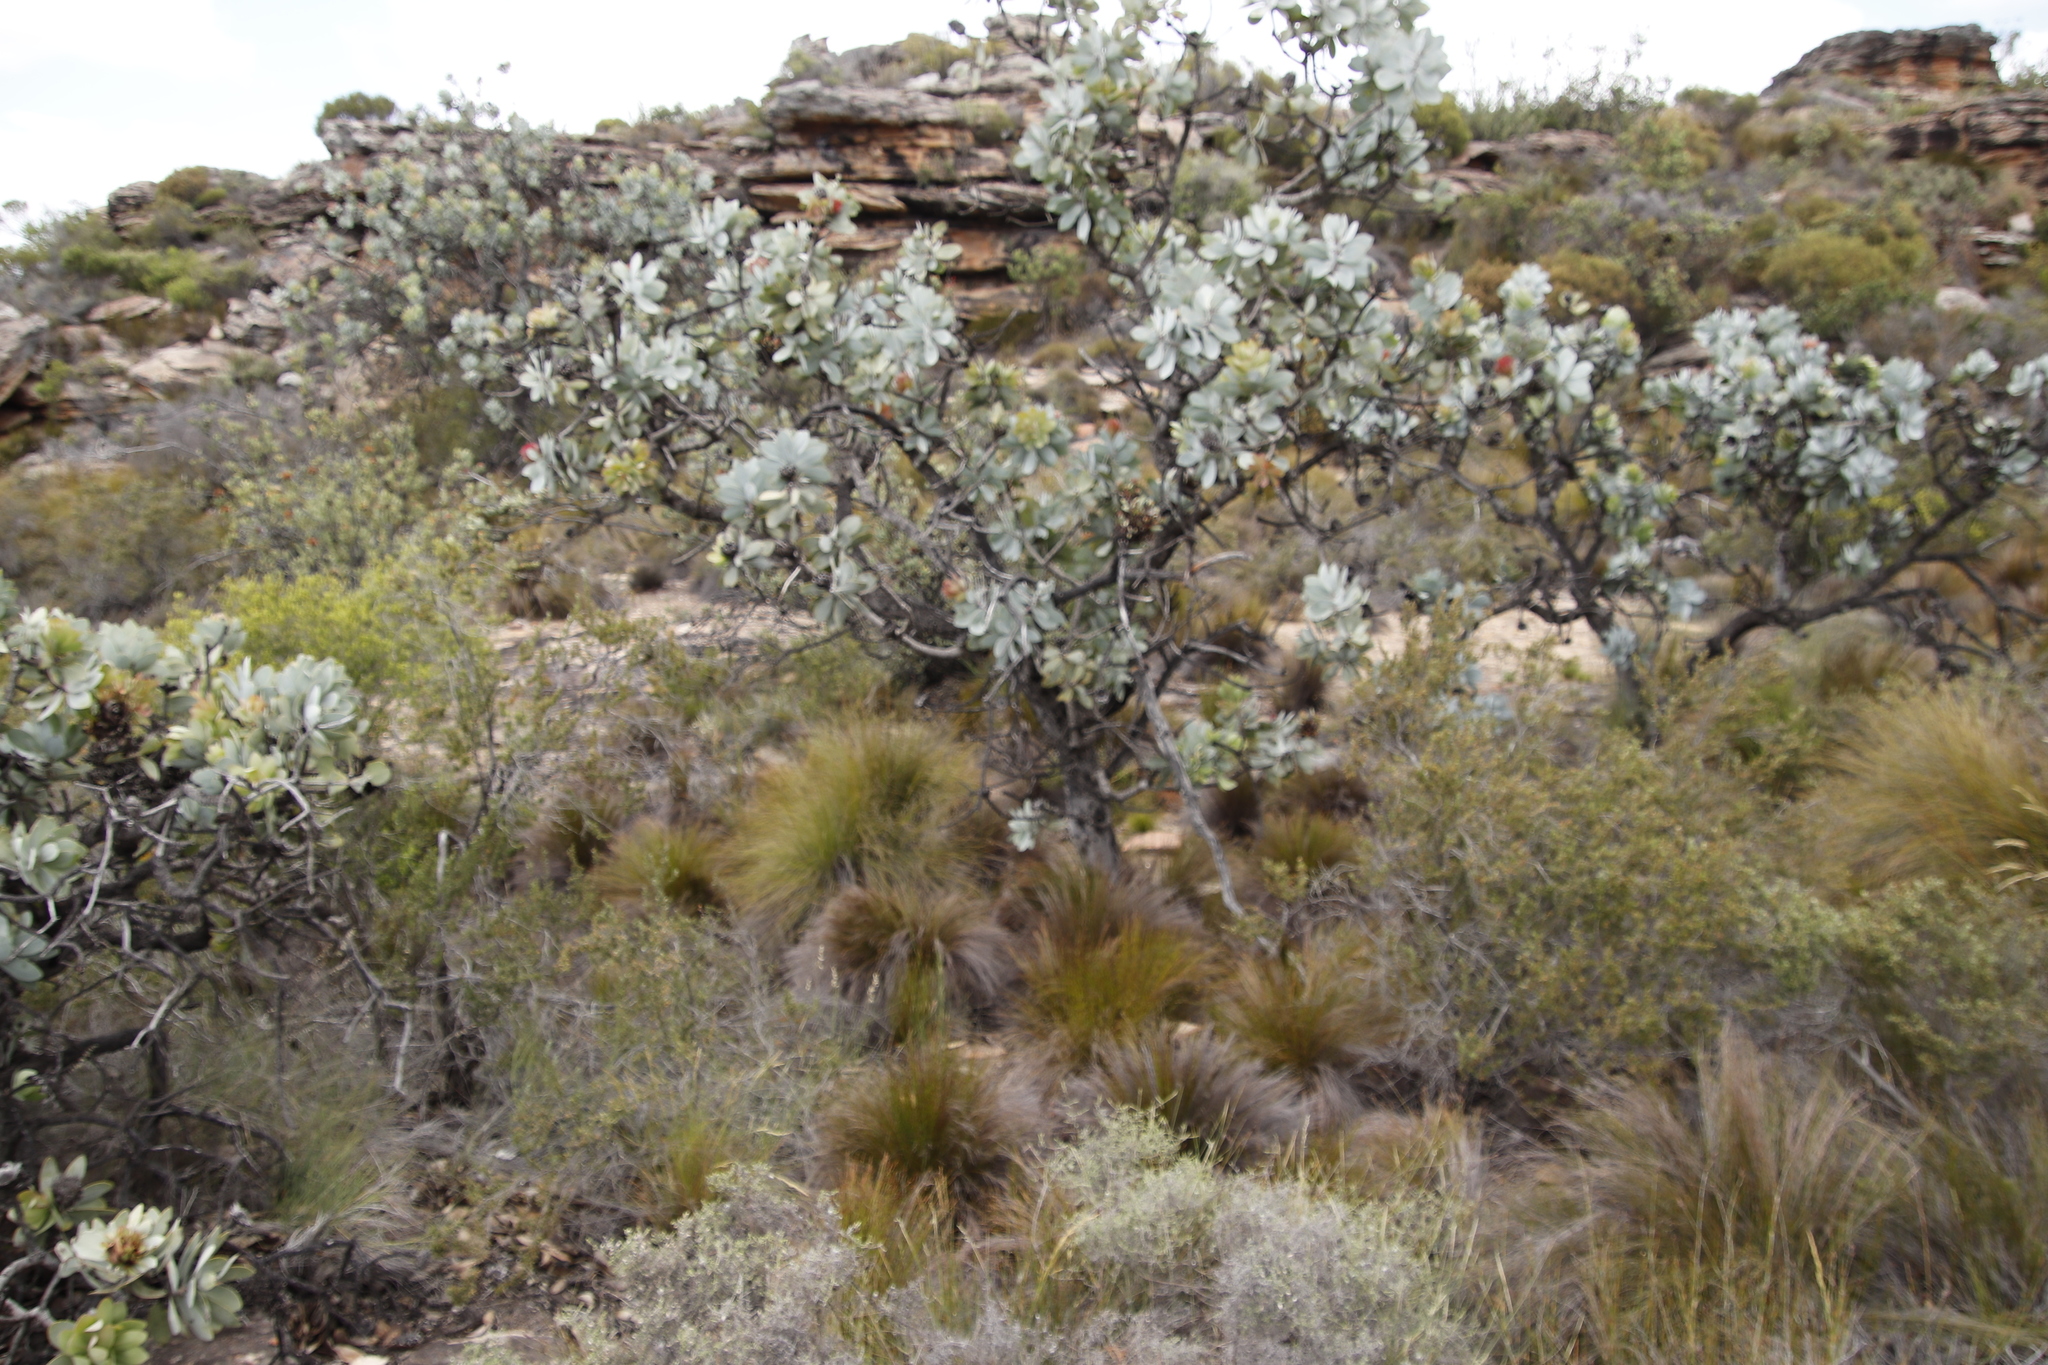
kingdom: Plantae
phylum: Tracheophyta
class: Magnoliopsida
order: Proteales
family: Proteaceae
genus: Protea
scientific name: Protea nitida
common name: Tree protea
